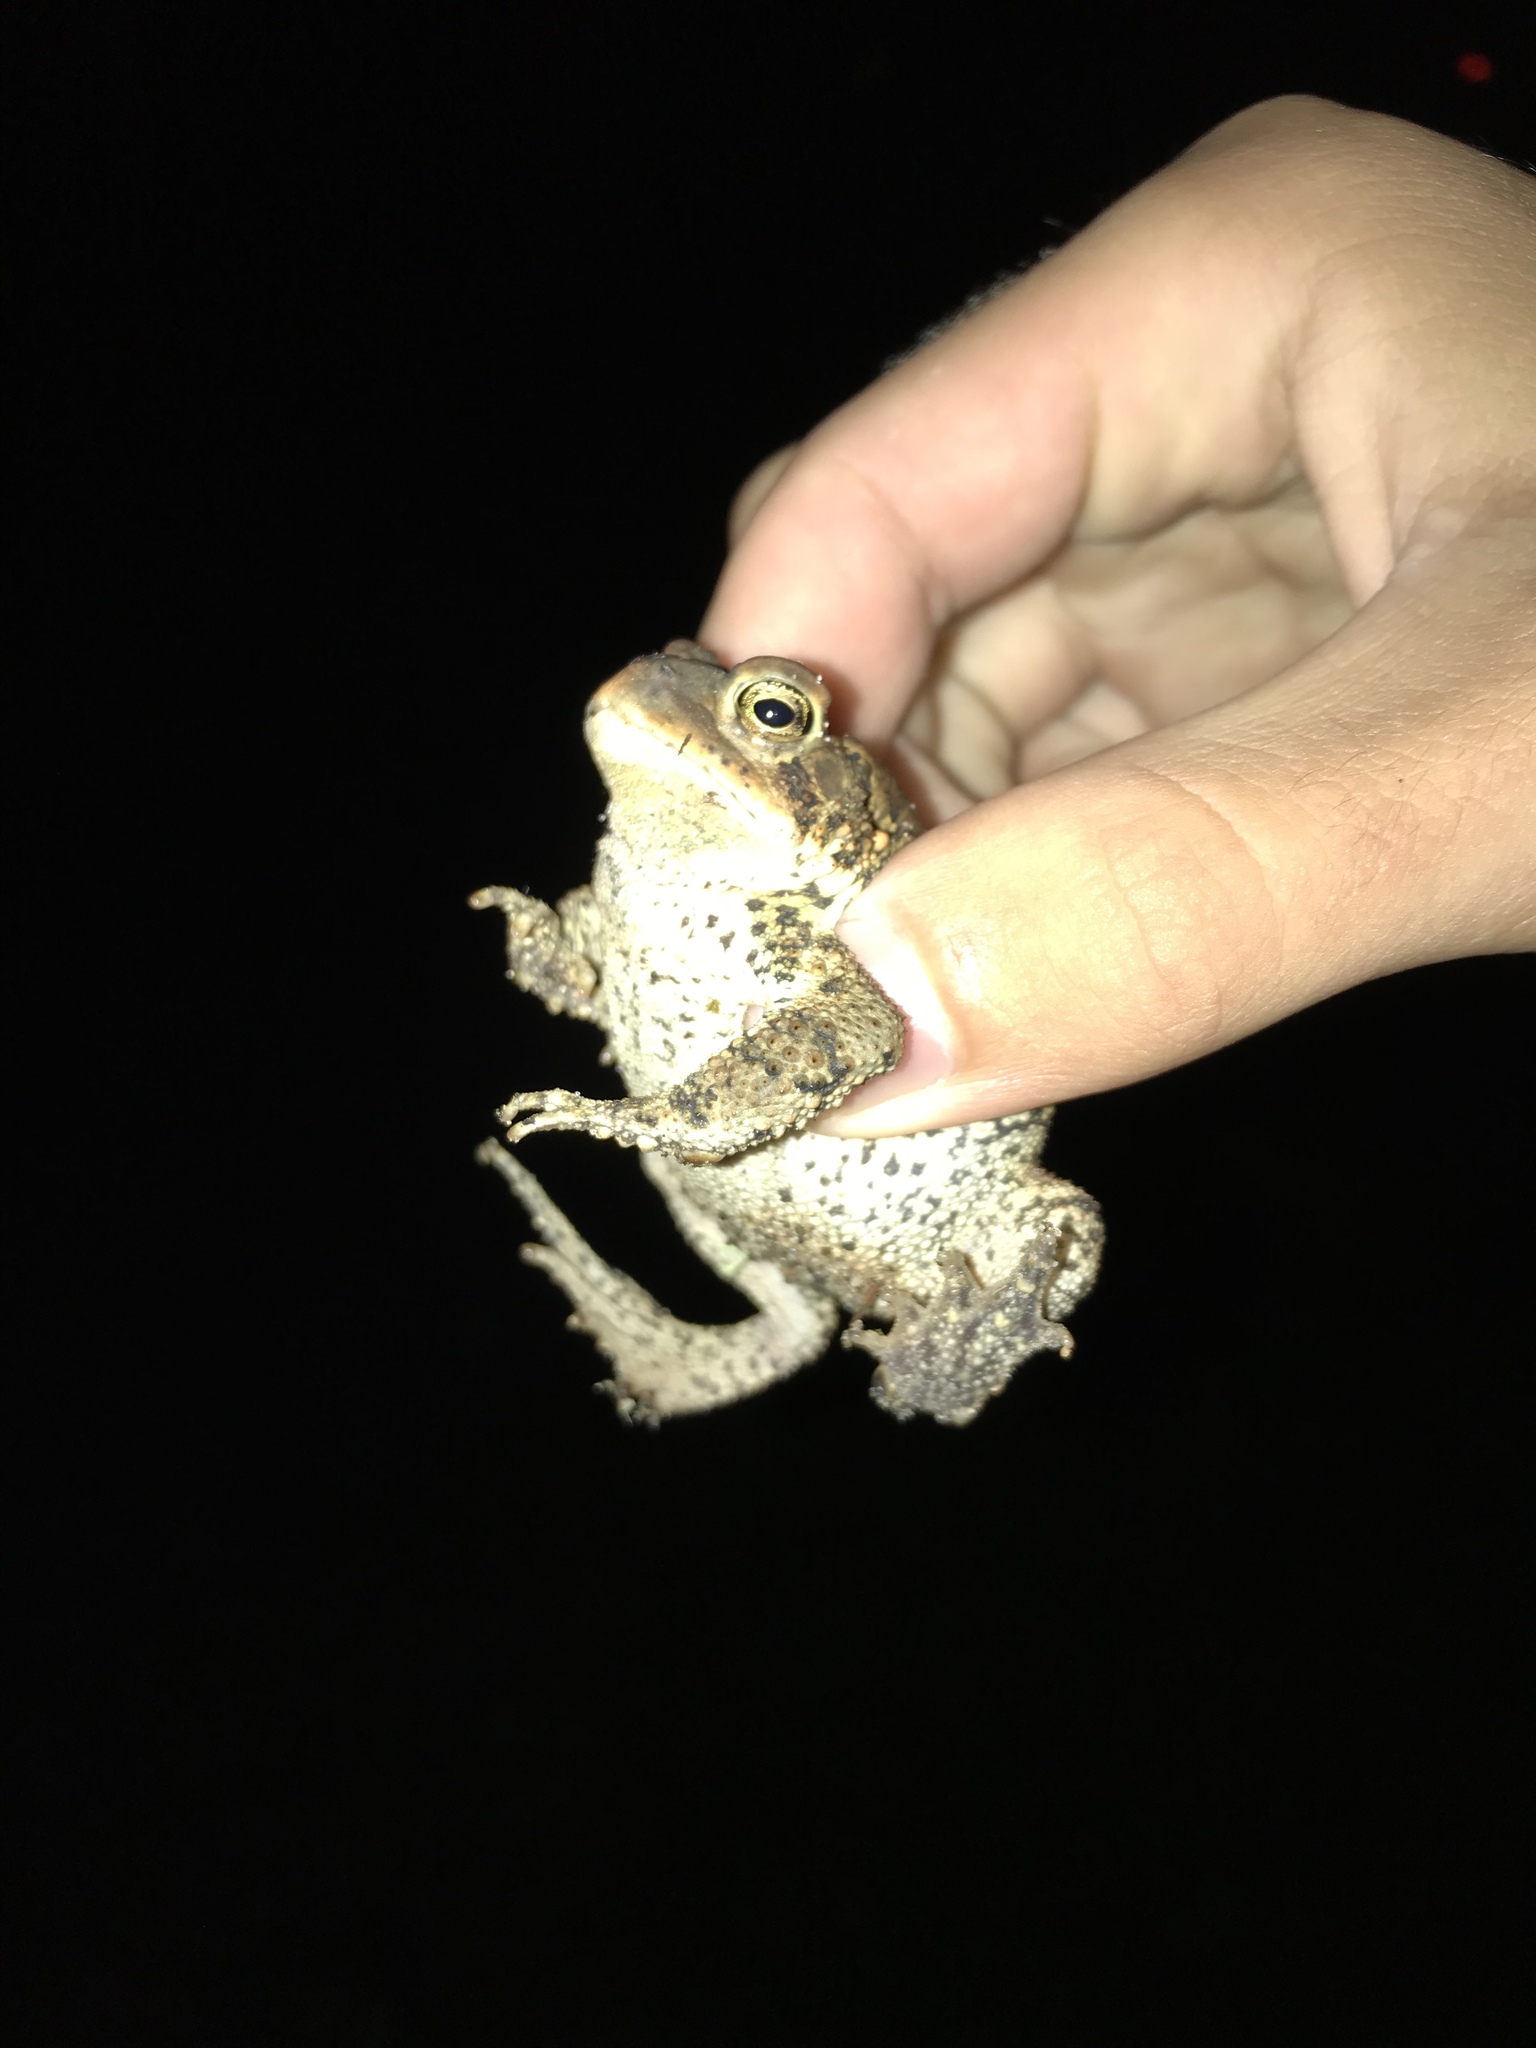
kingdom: Animalia
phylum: Chordata
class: Amphibia
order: Anura
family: Bufonidae
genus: Anaxyrus
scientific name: Anaxyrus americanus
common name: American toad
